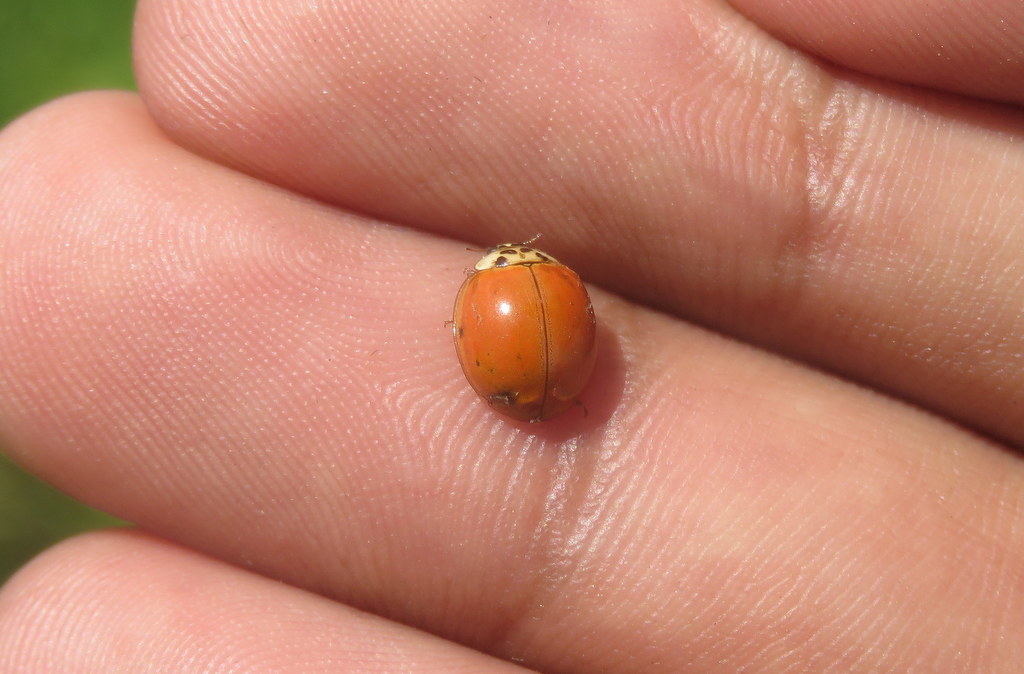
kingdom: Animalia
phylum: Arthropoda
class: Insecta
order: Coleoptera
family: Coccinellidae
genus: Harmonia
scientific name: Harmonia axyridis
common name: Harlequin ladybird
